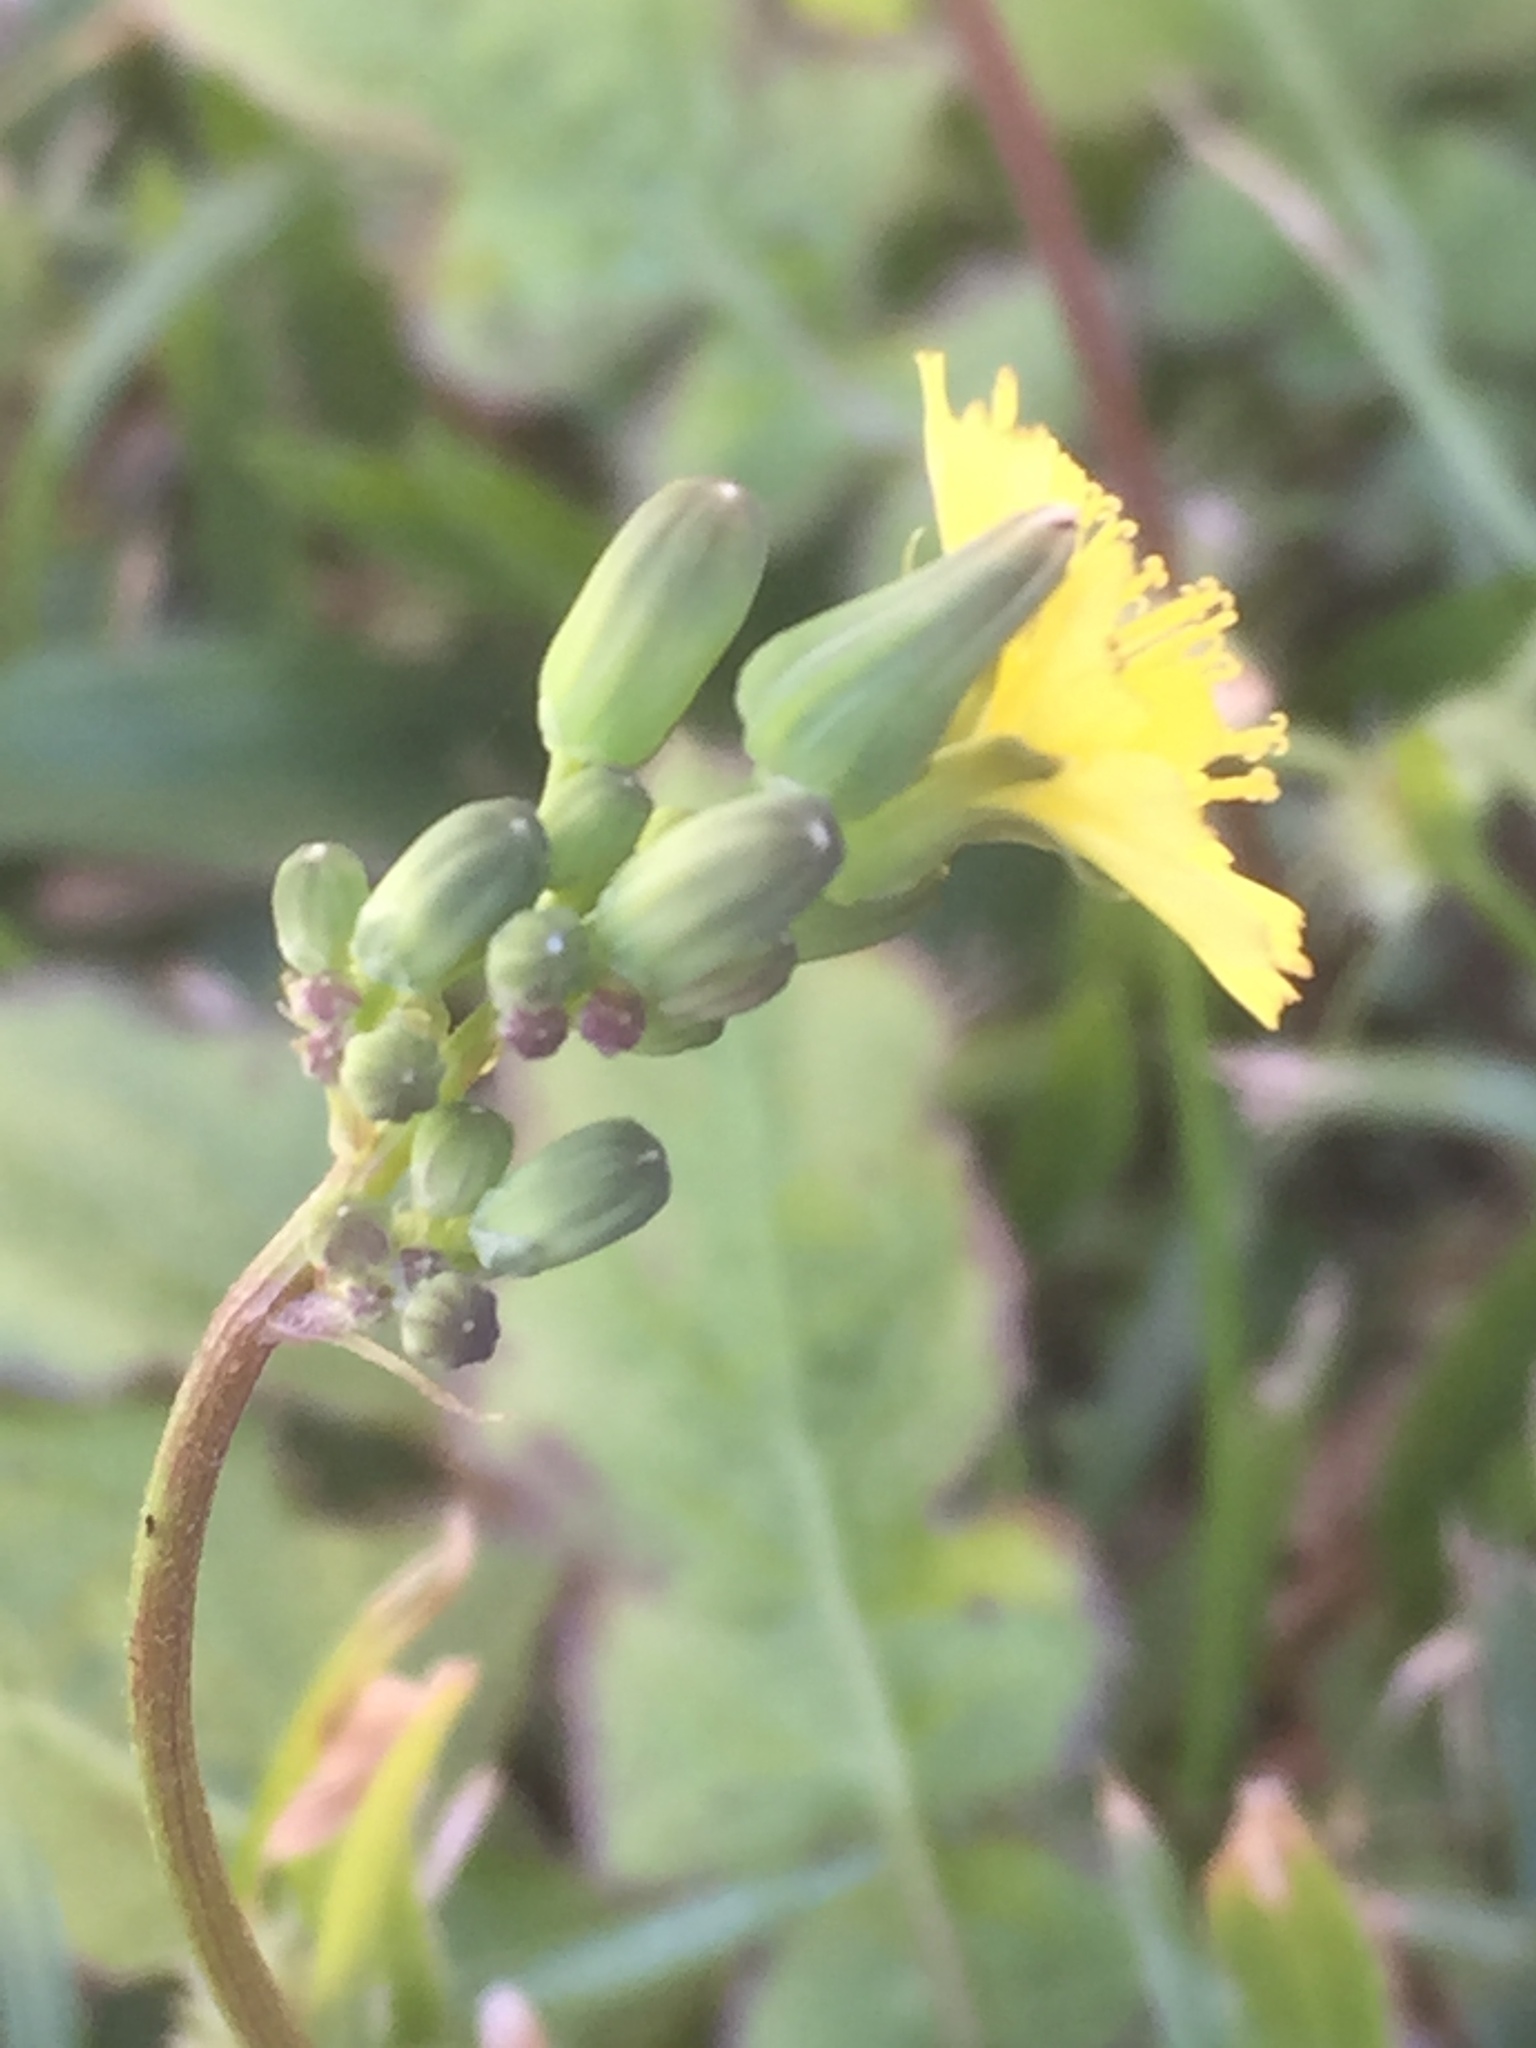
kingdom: Plantae
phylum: Tracheophyta
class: Magnoliopsida
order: Asterales
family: Asteraceae
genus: Youngia
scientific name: Youngia japonica
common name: Oriental false hawksbeard
